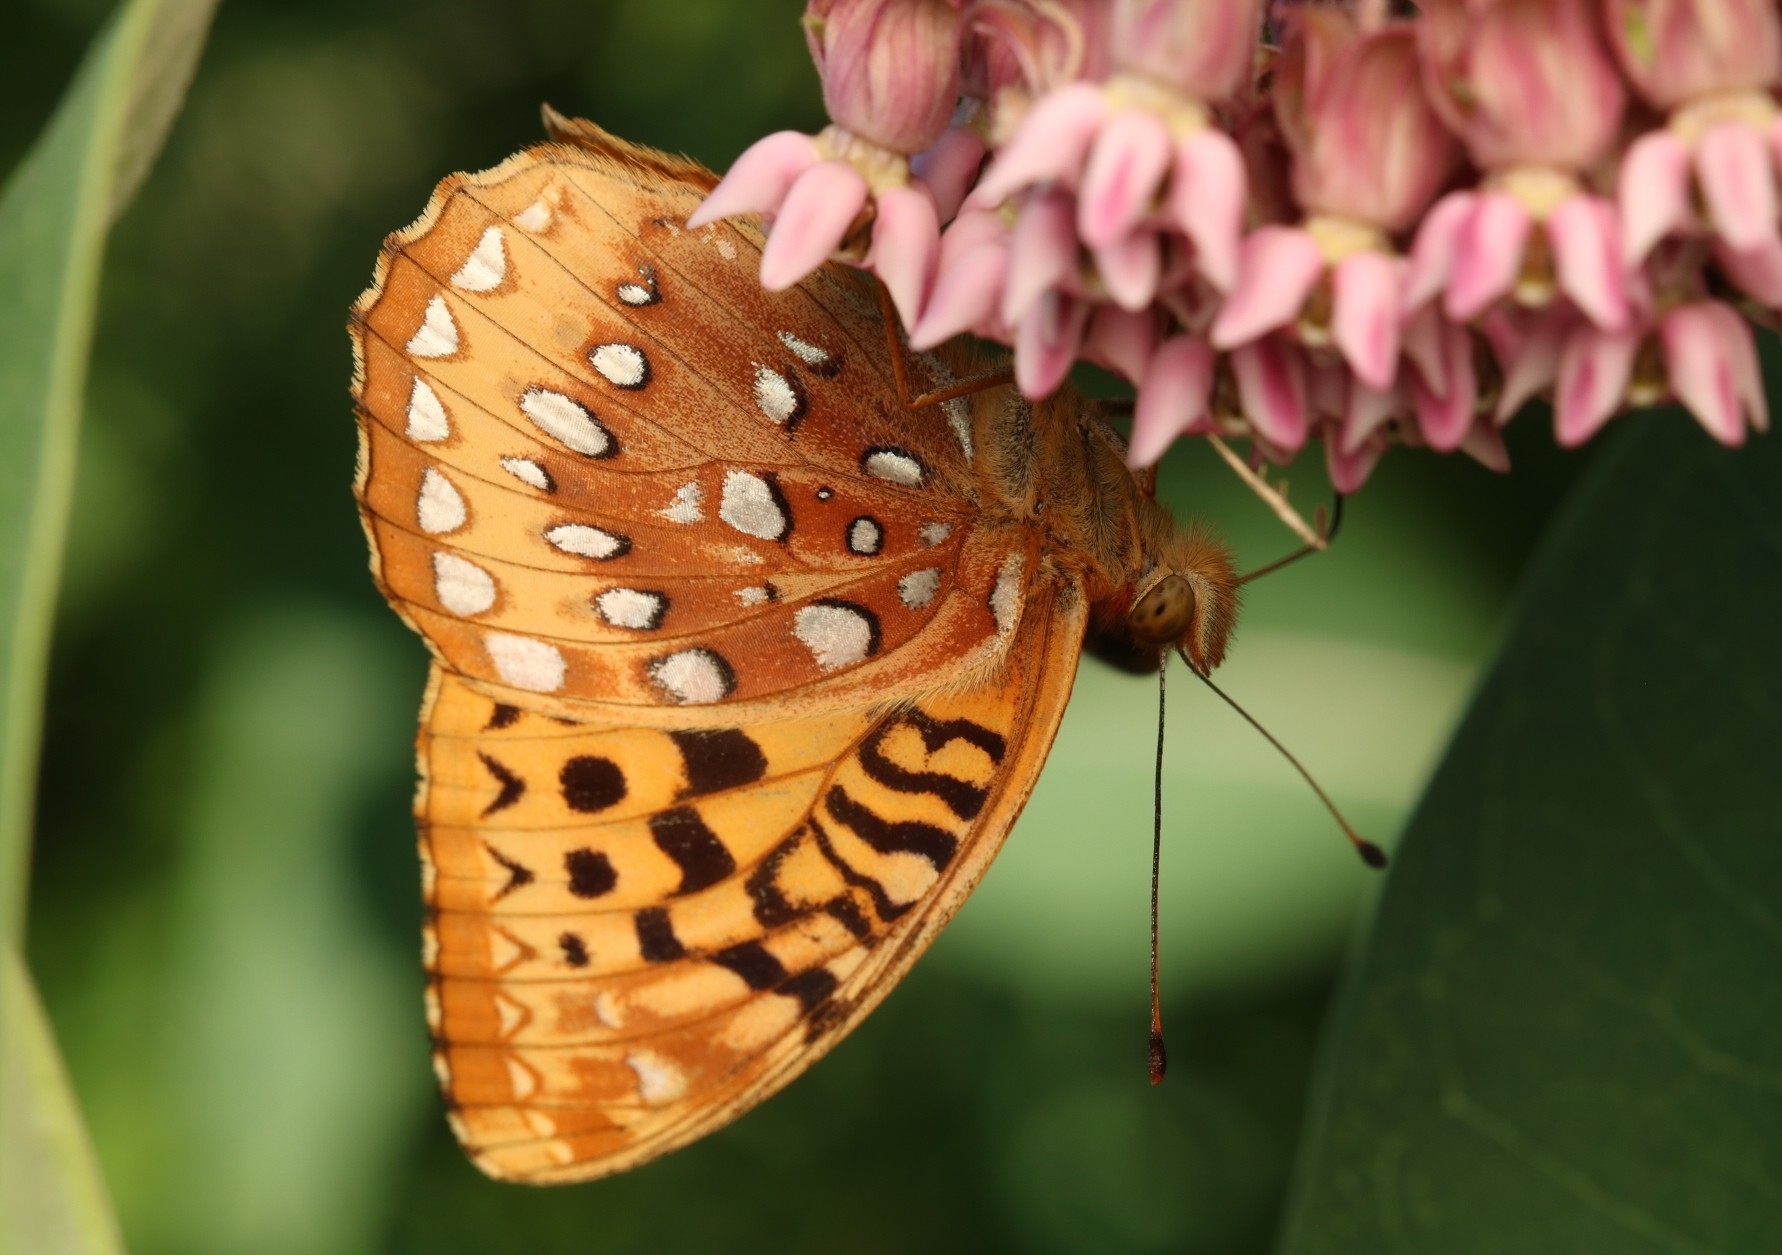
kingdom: Animalia
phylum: Arthropoda
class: Insecta
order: Lepidoptera
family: Nymphalidae
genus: Speyeria
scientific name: Speyeria cybele
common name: Great spangled fritillary
